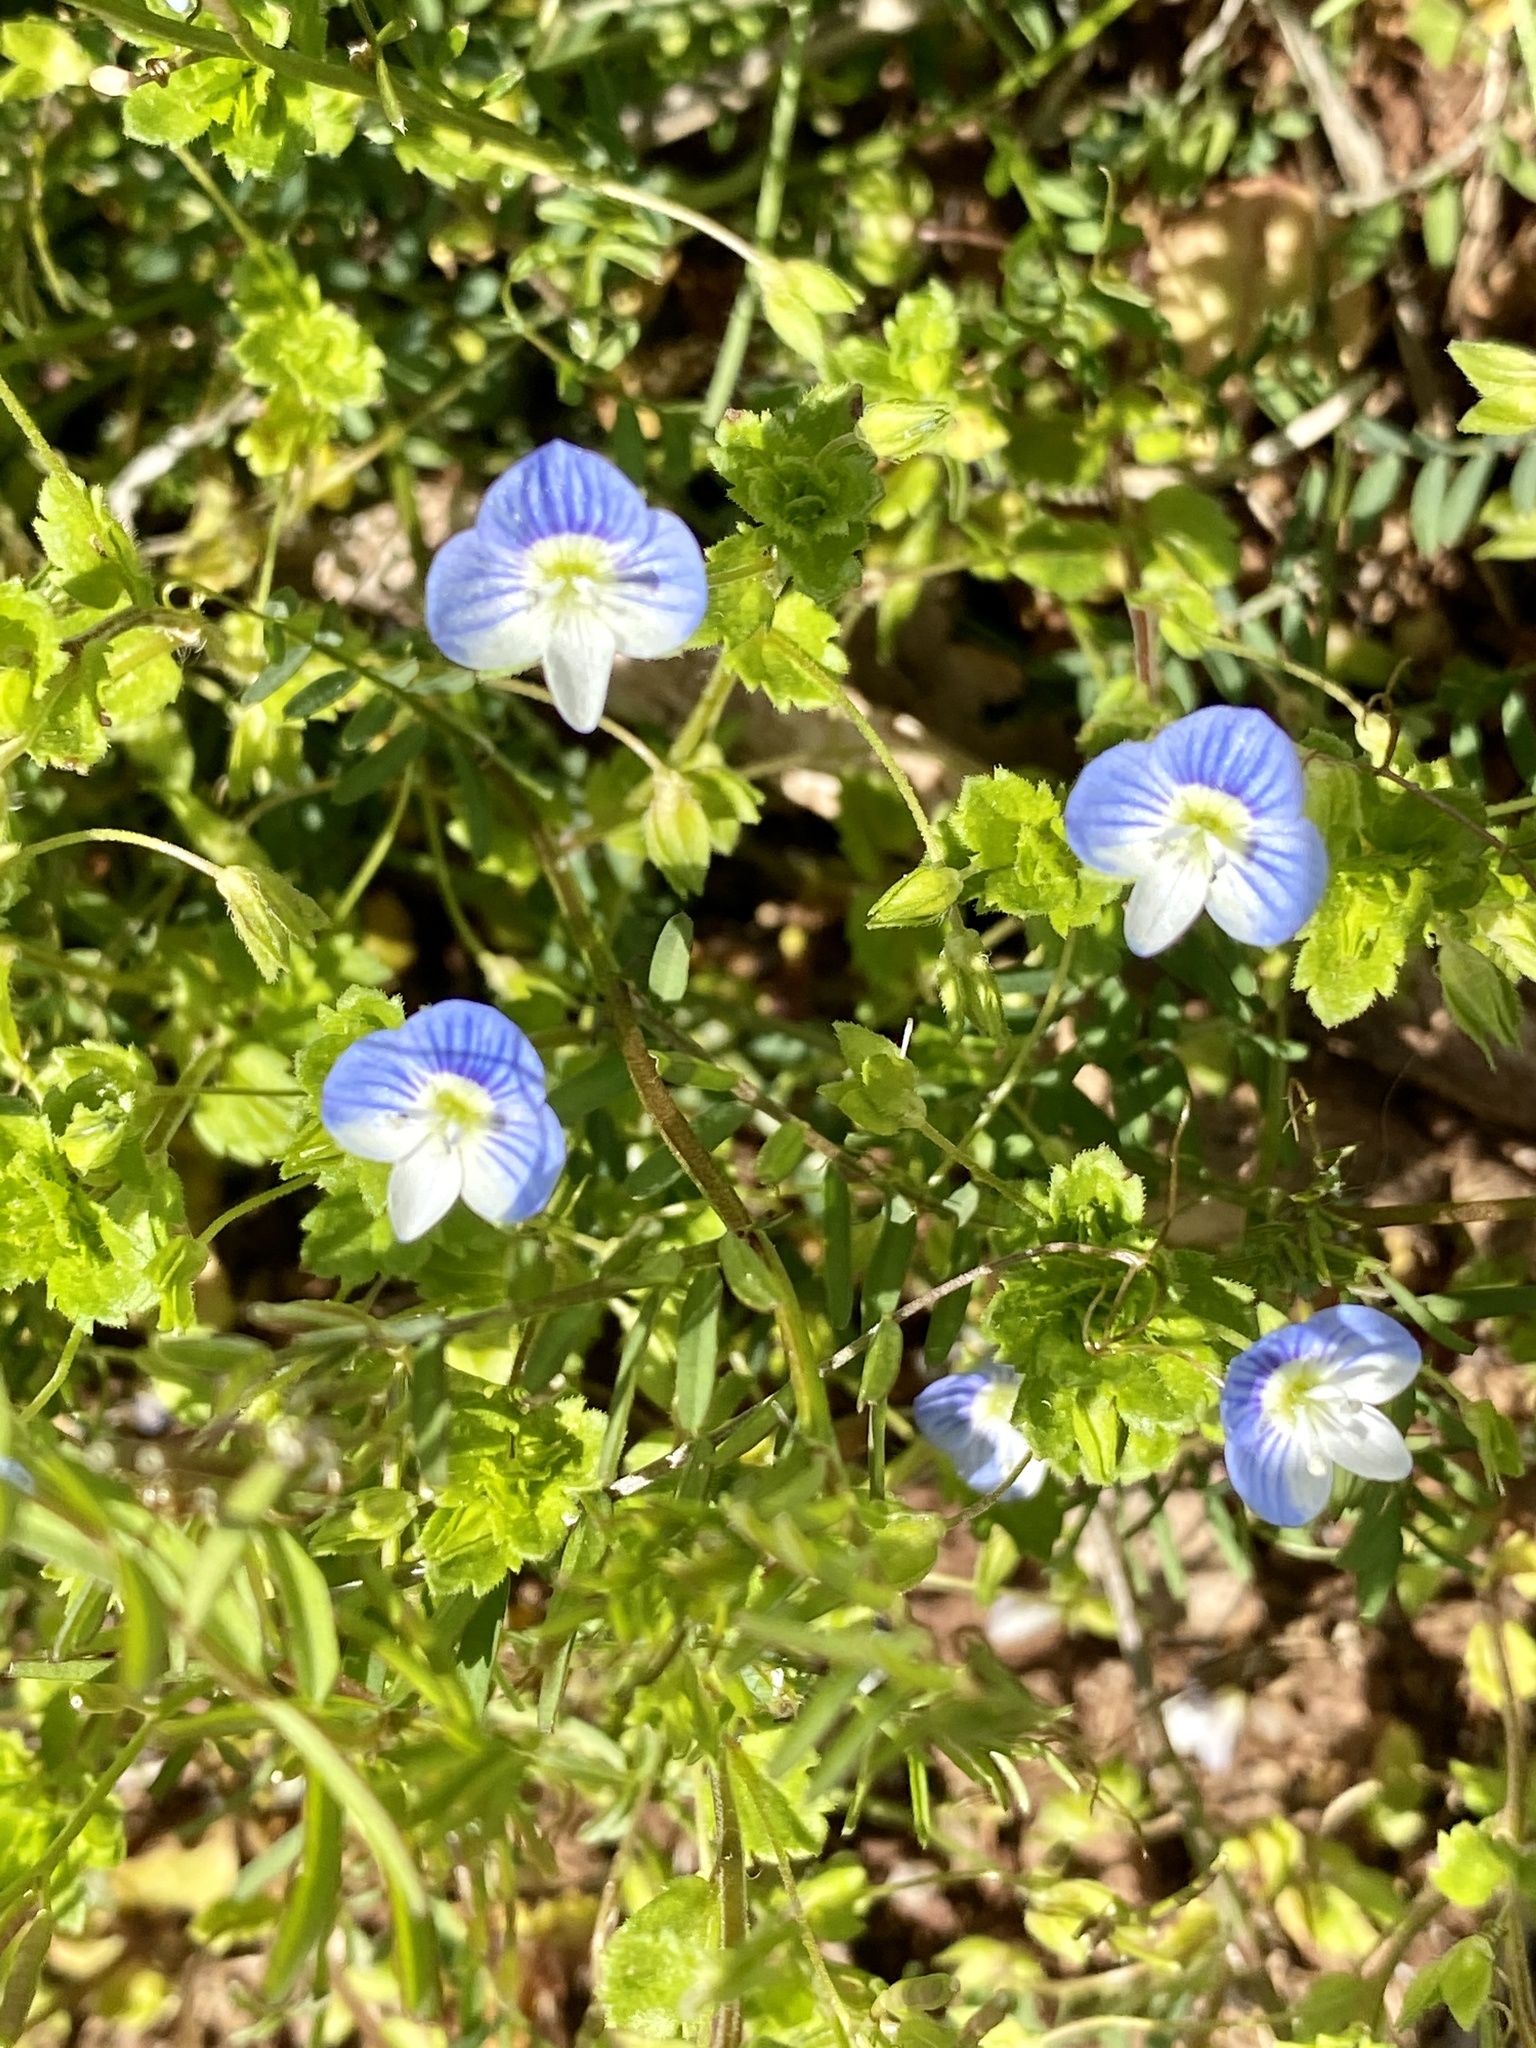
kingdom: Plantae
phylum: Tracheophyta
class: Magnoliopsida
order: Lamiales
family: Plantaginaceae
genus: Veronica
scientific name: Veronica persica
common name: Common field-speedwell
